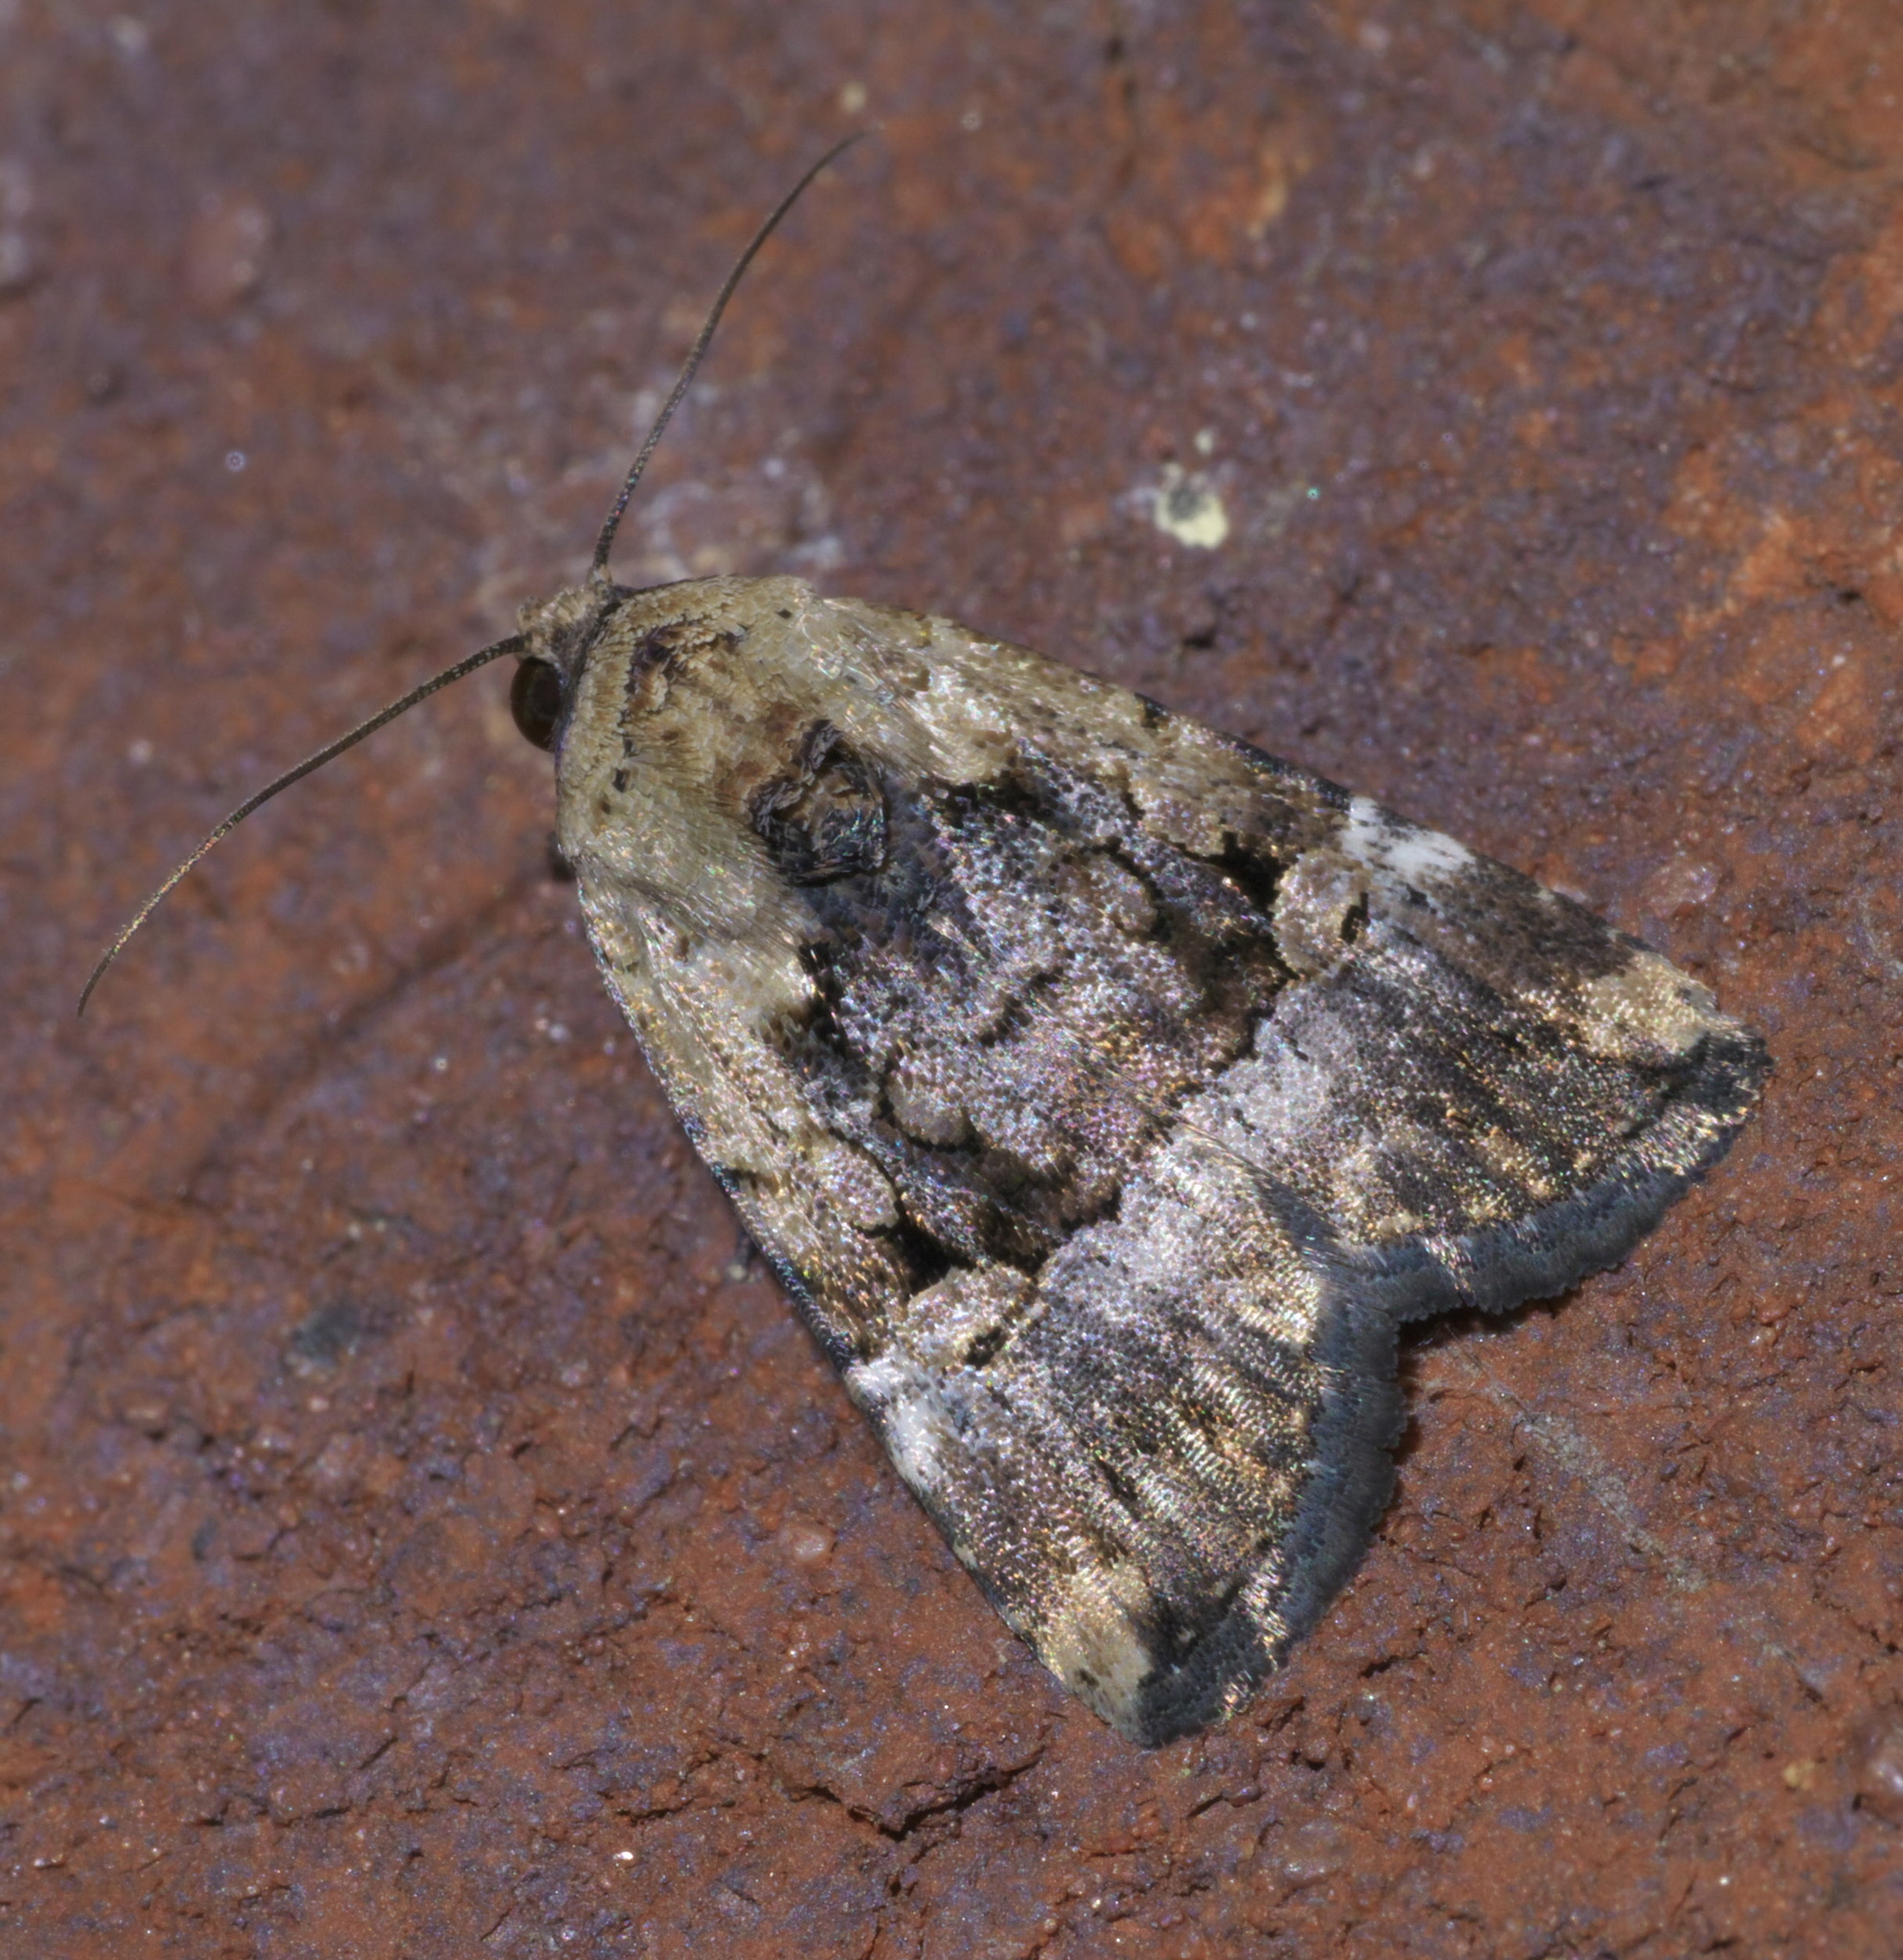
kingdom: Animalia
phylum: Arthropoda
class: Insecta
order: Lepidoptera
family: Noctuidae
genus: Elaphria
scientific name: Elaphria chalcedonia
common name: Chalcedony midget
